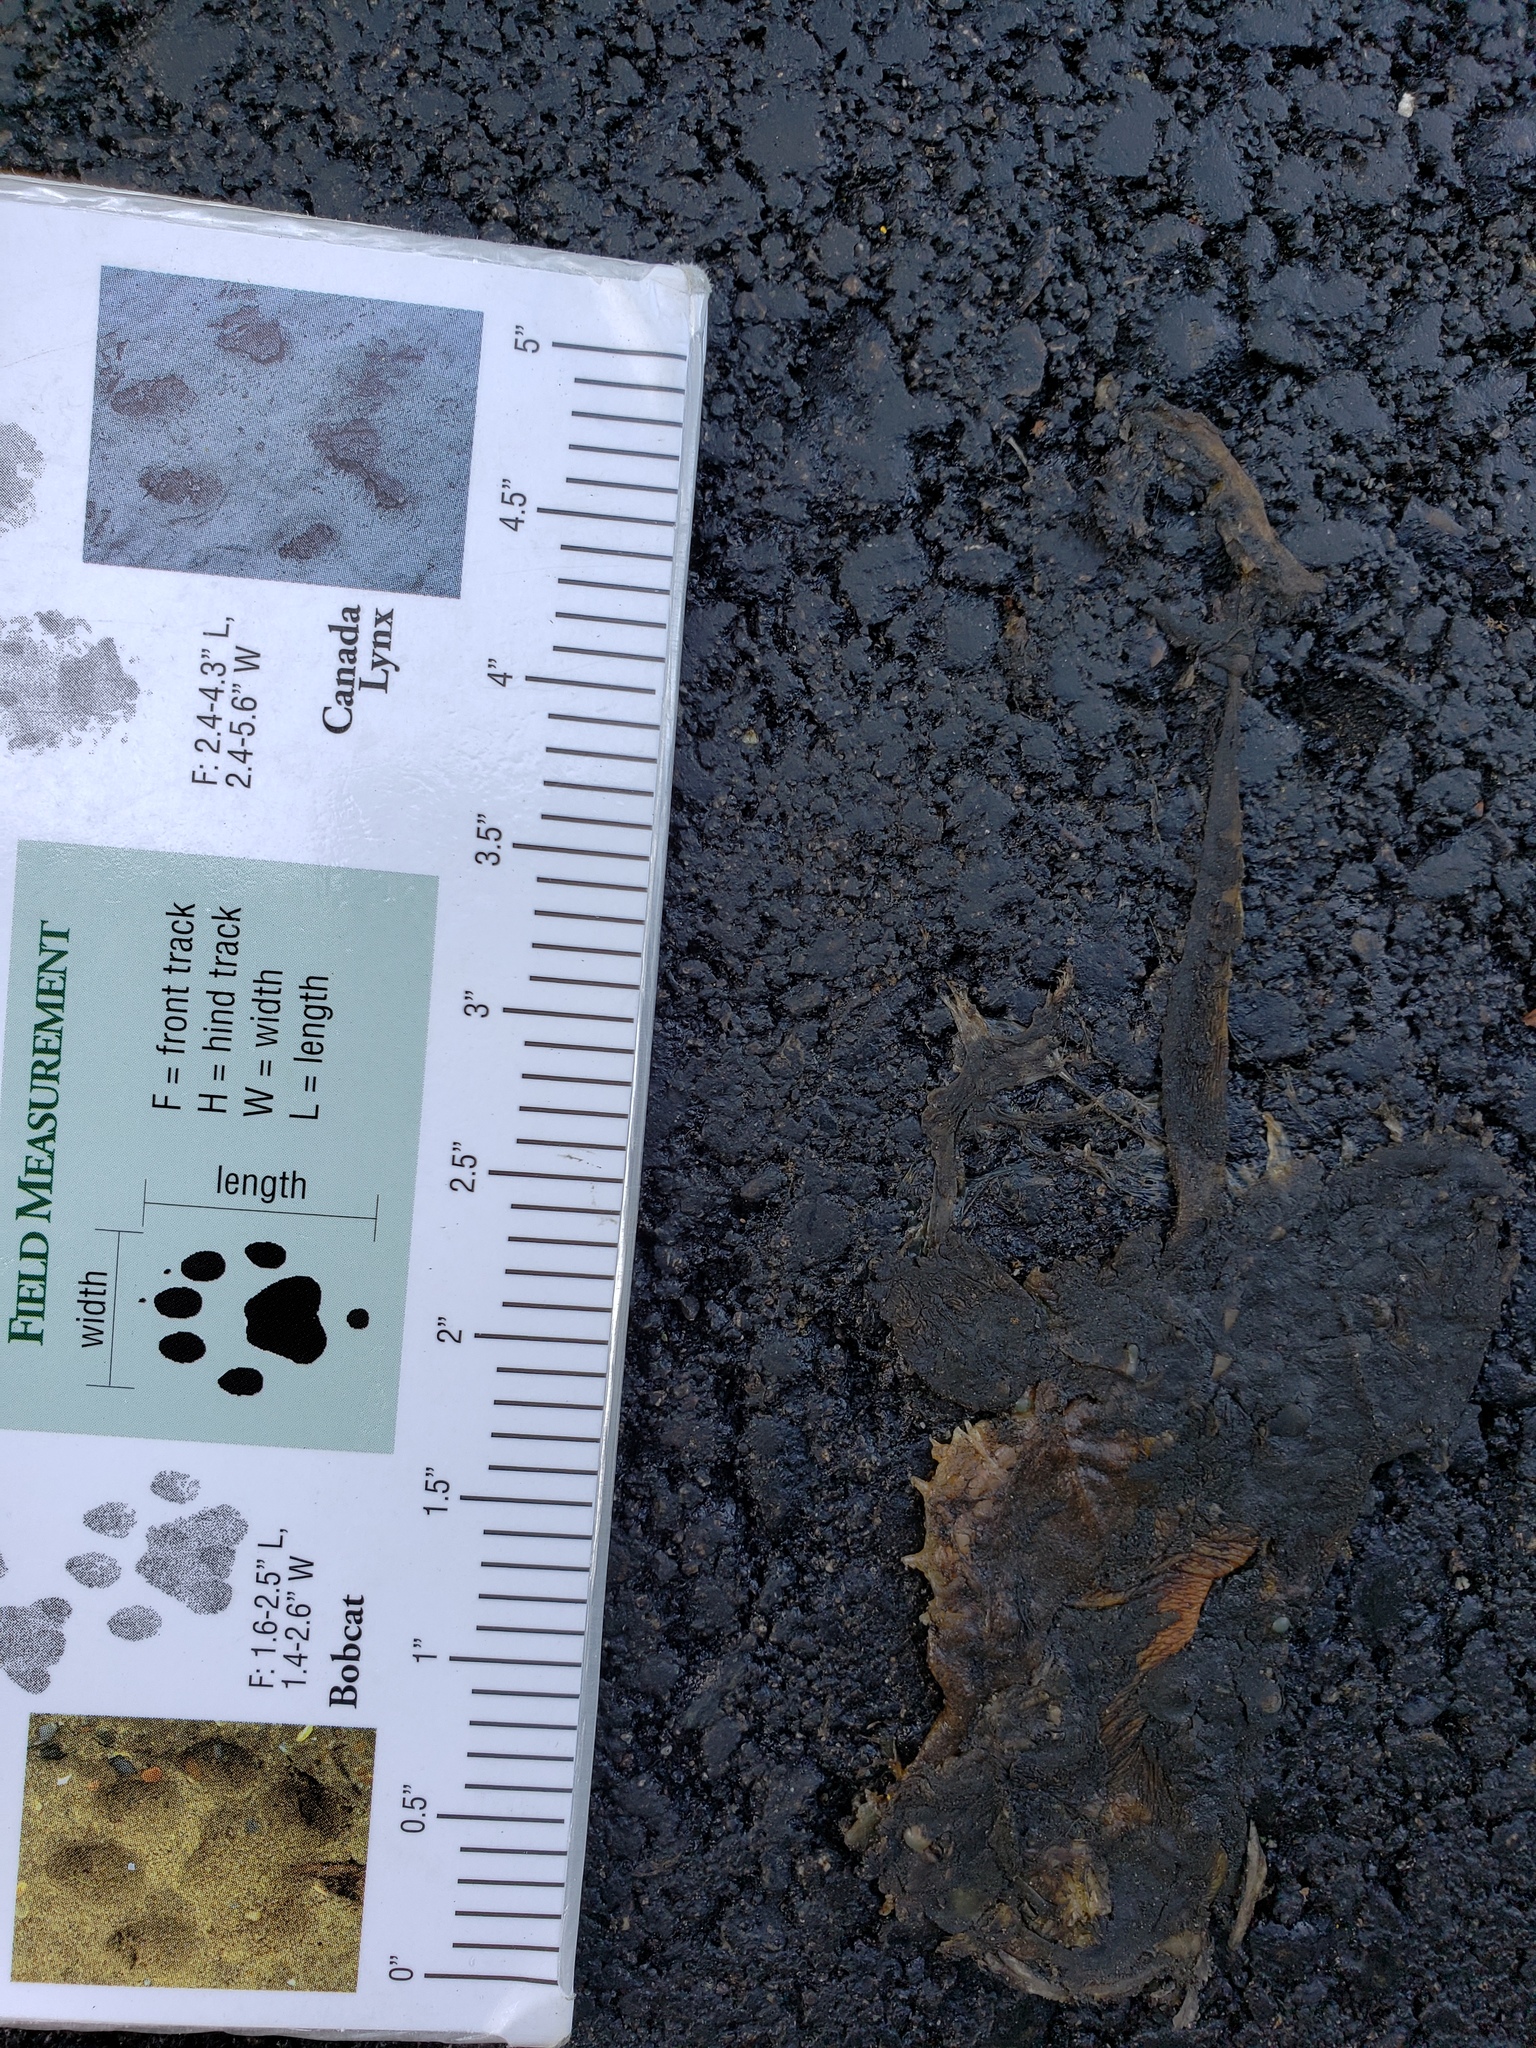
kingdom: Animalia
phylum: Chordata
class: Amphibia
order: Caudata
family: Salamandridae
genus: Taricha
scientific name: Taricha
